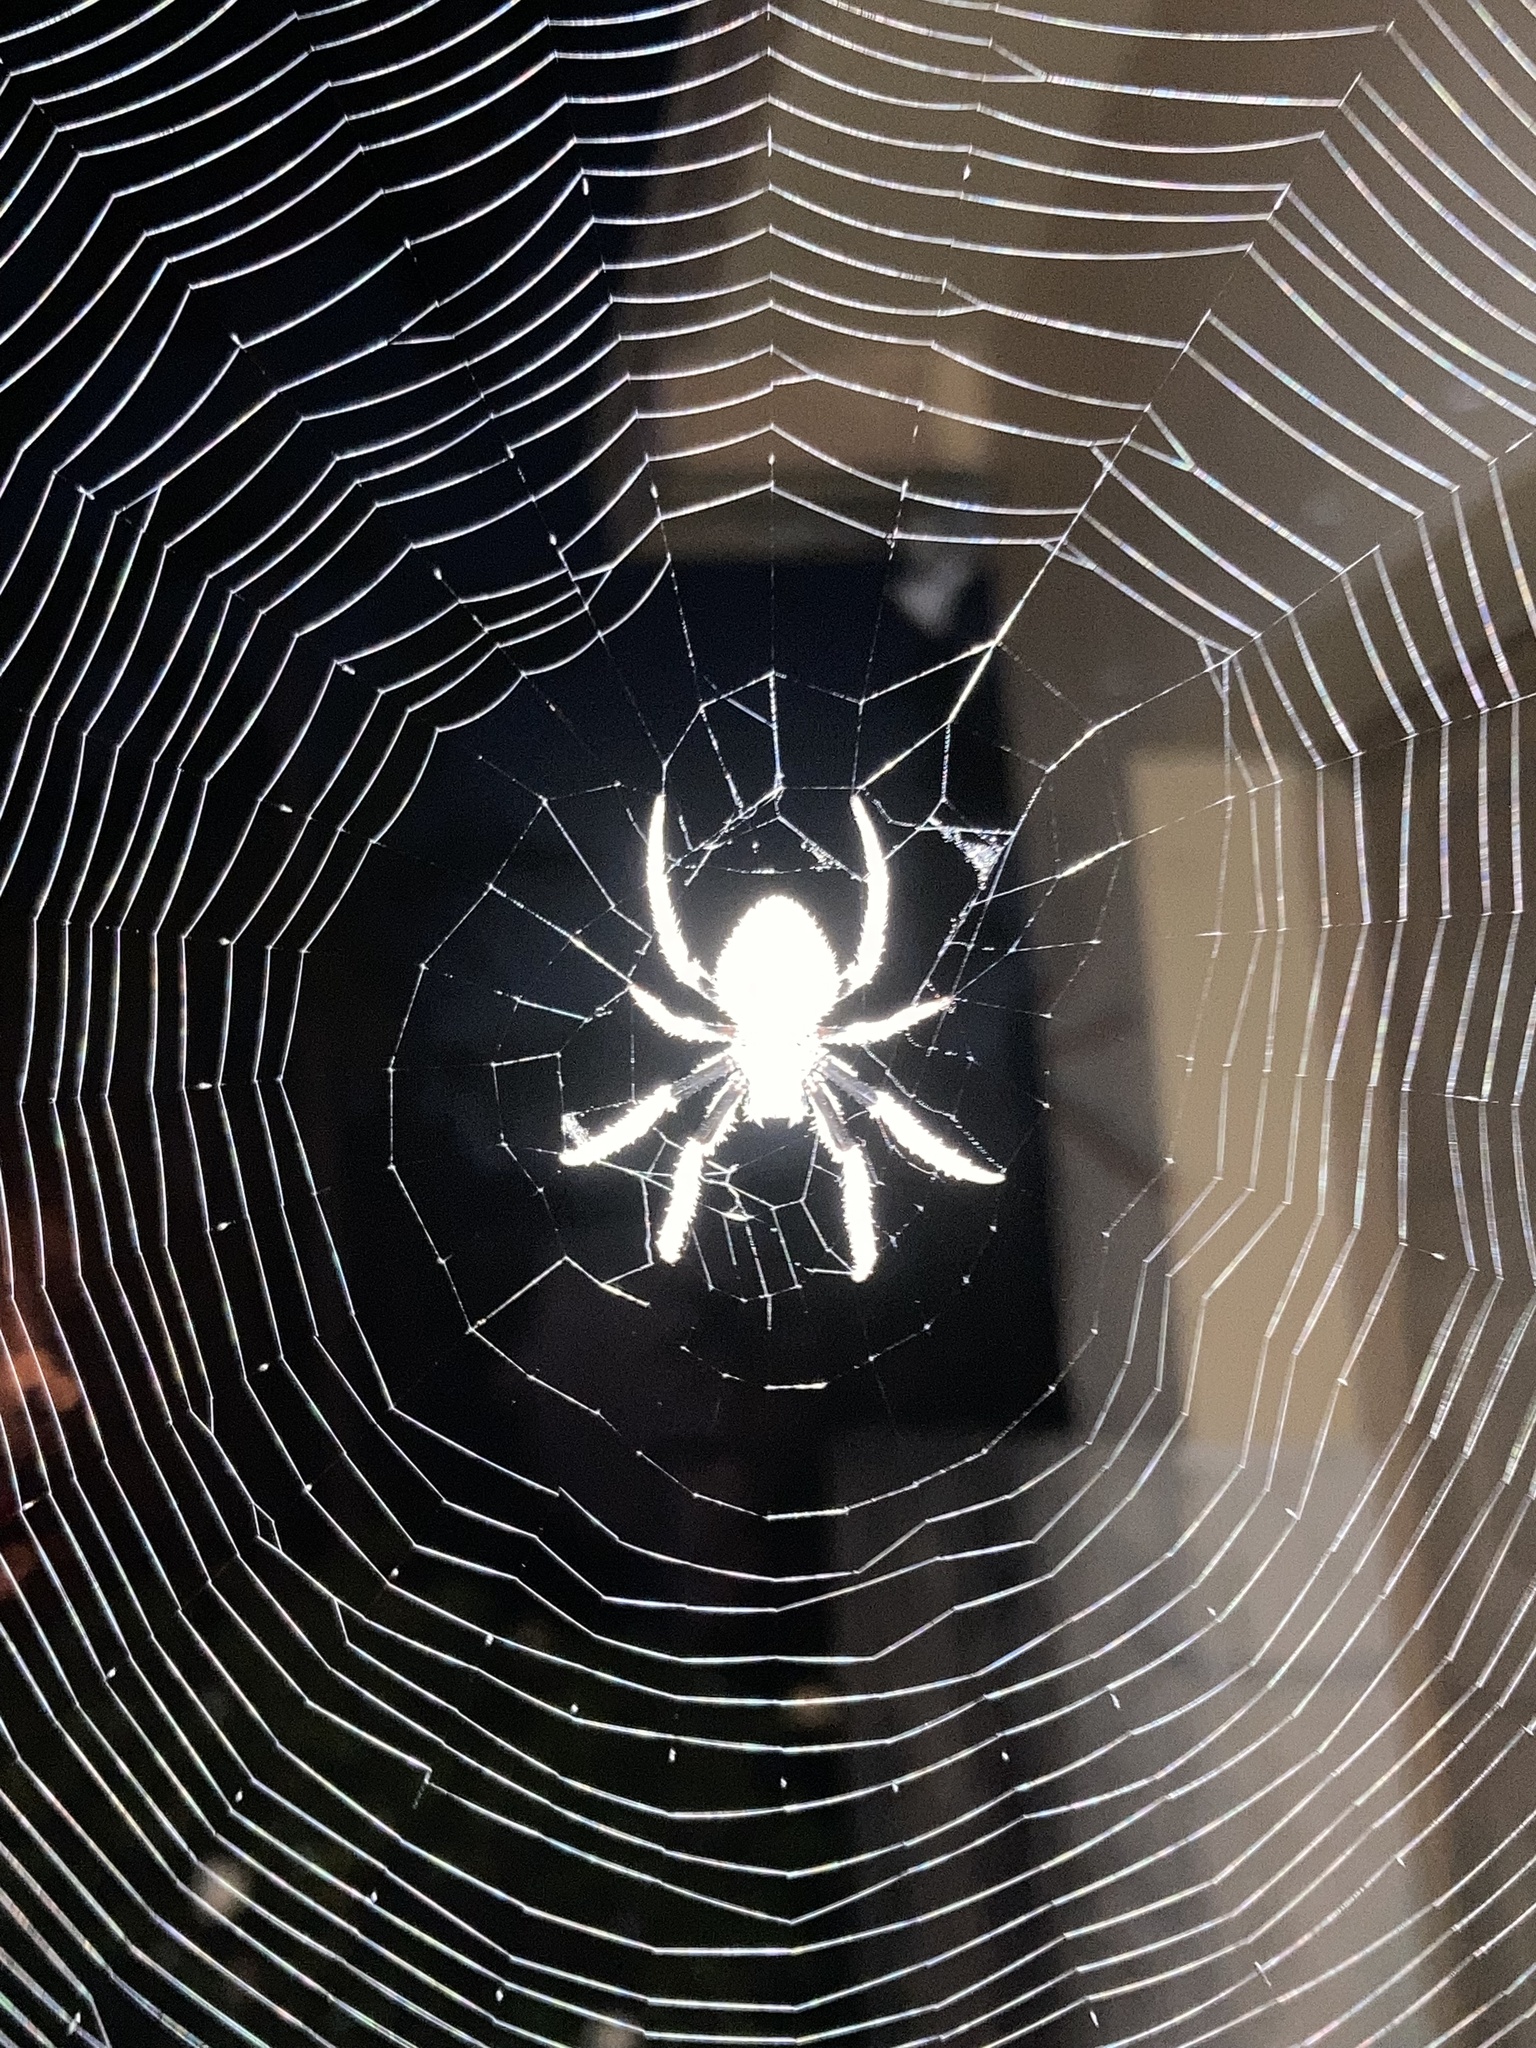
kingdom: Animalia
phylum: Arthropoda
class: Arachnida
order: Araneae
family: Araneidae
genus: Eriophora
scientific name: Eriophora ravilla
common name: Orb weavers
